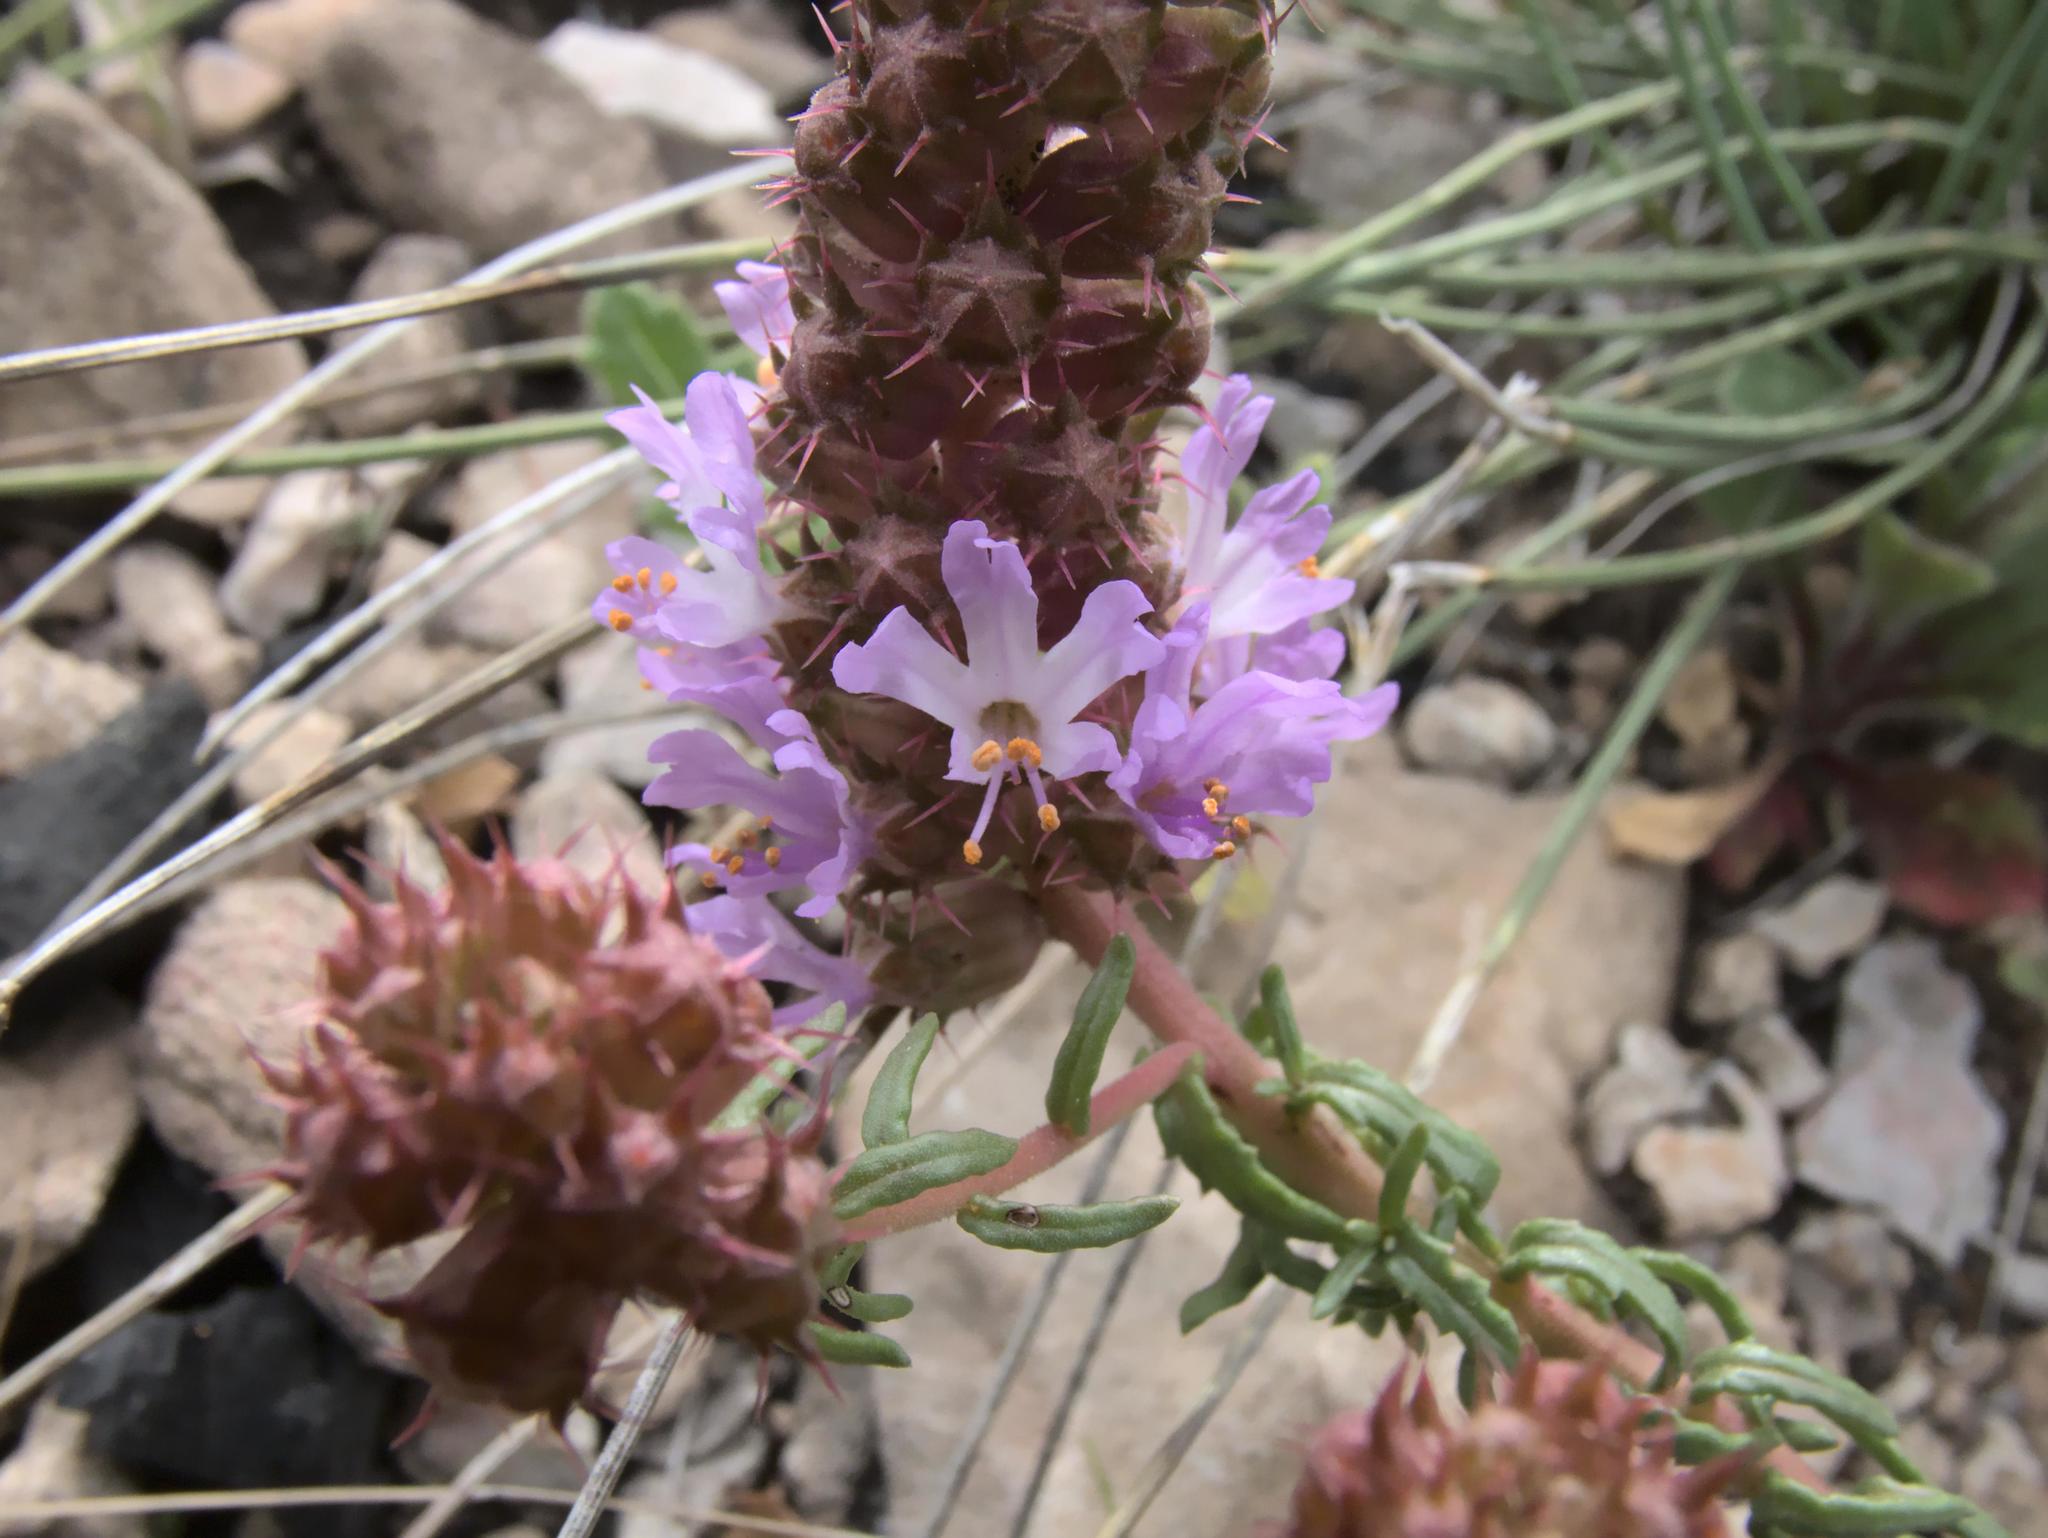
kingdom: Plantae
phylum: Tracheophyta
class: Magnoliopsida
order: Ericales
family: Primulaceae
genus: Coris
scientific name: Coris monspeliensis
